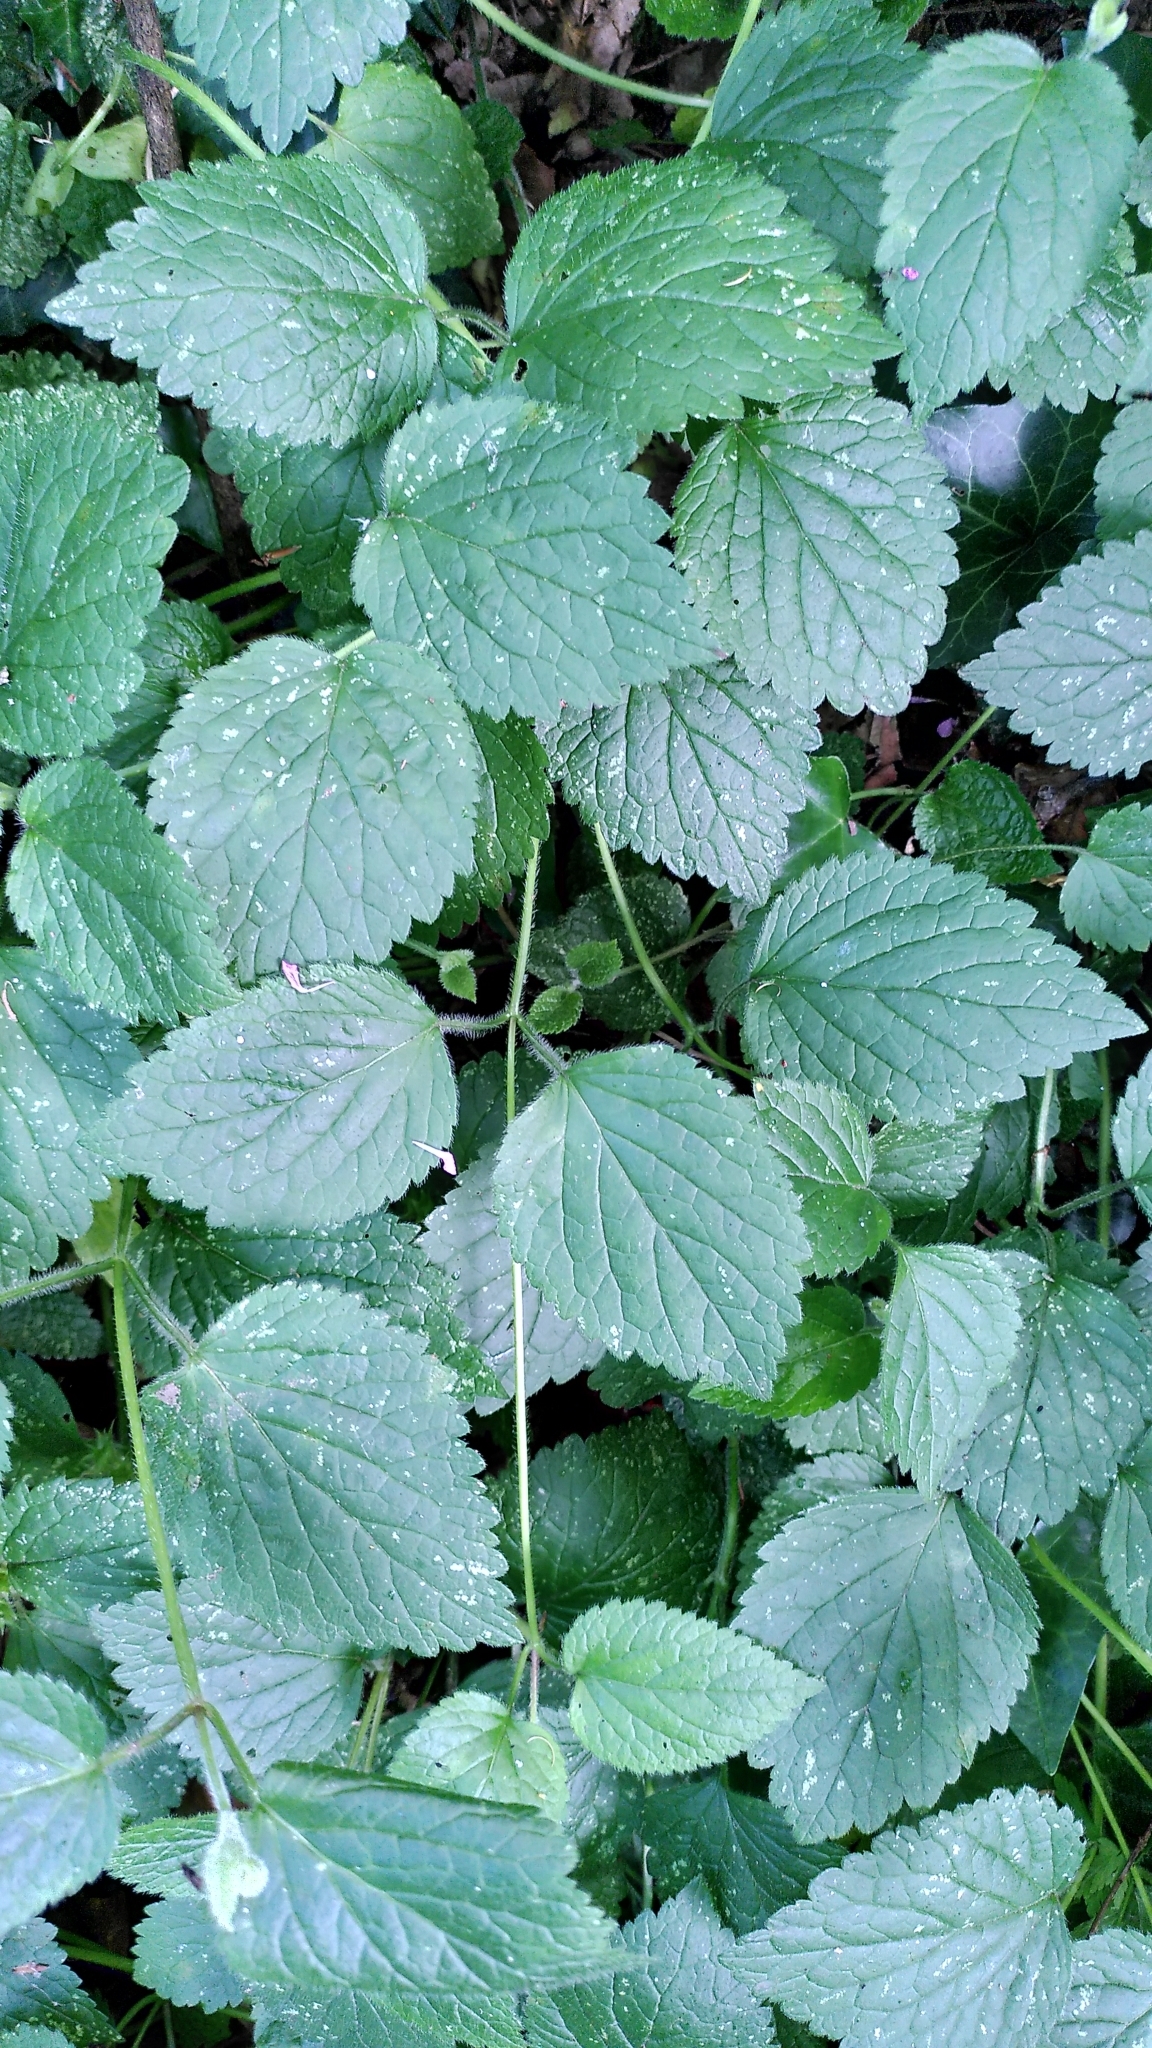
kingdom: Plantae
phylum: Tracheophyta
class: Magnoliopsida
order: Lamiales
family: Lamiaceae
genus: Lamium
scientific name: Lamium galeobdolon
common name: Yellow archangel
